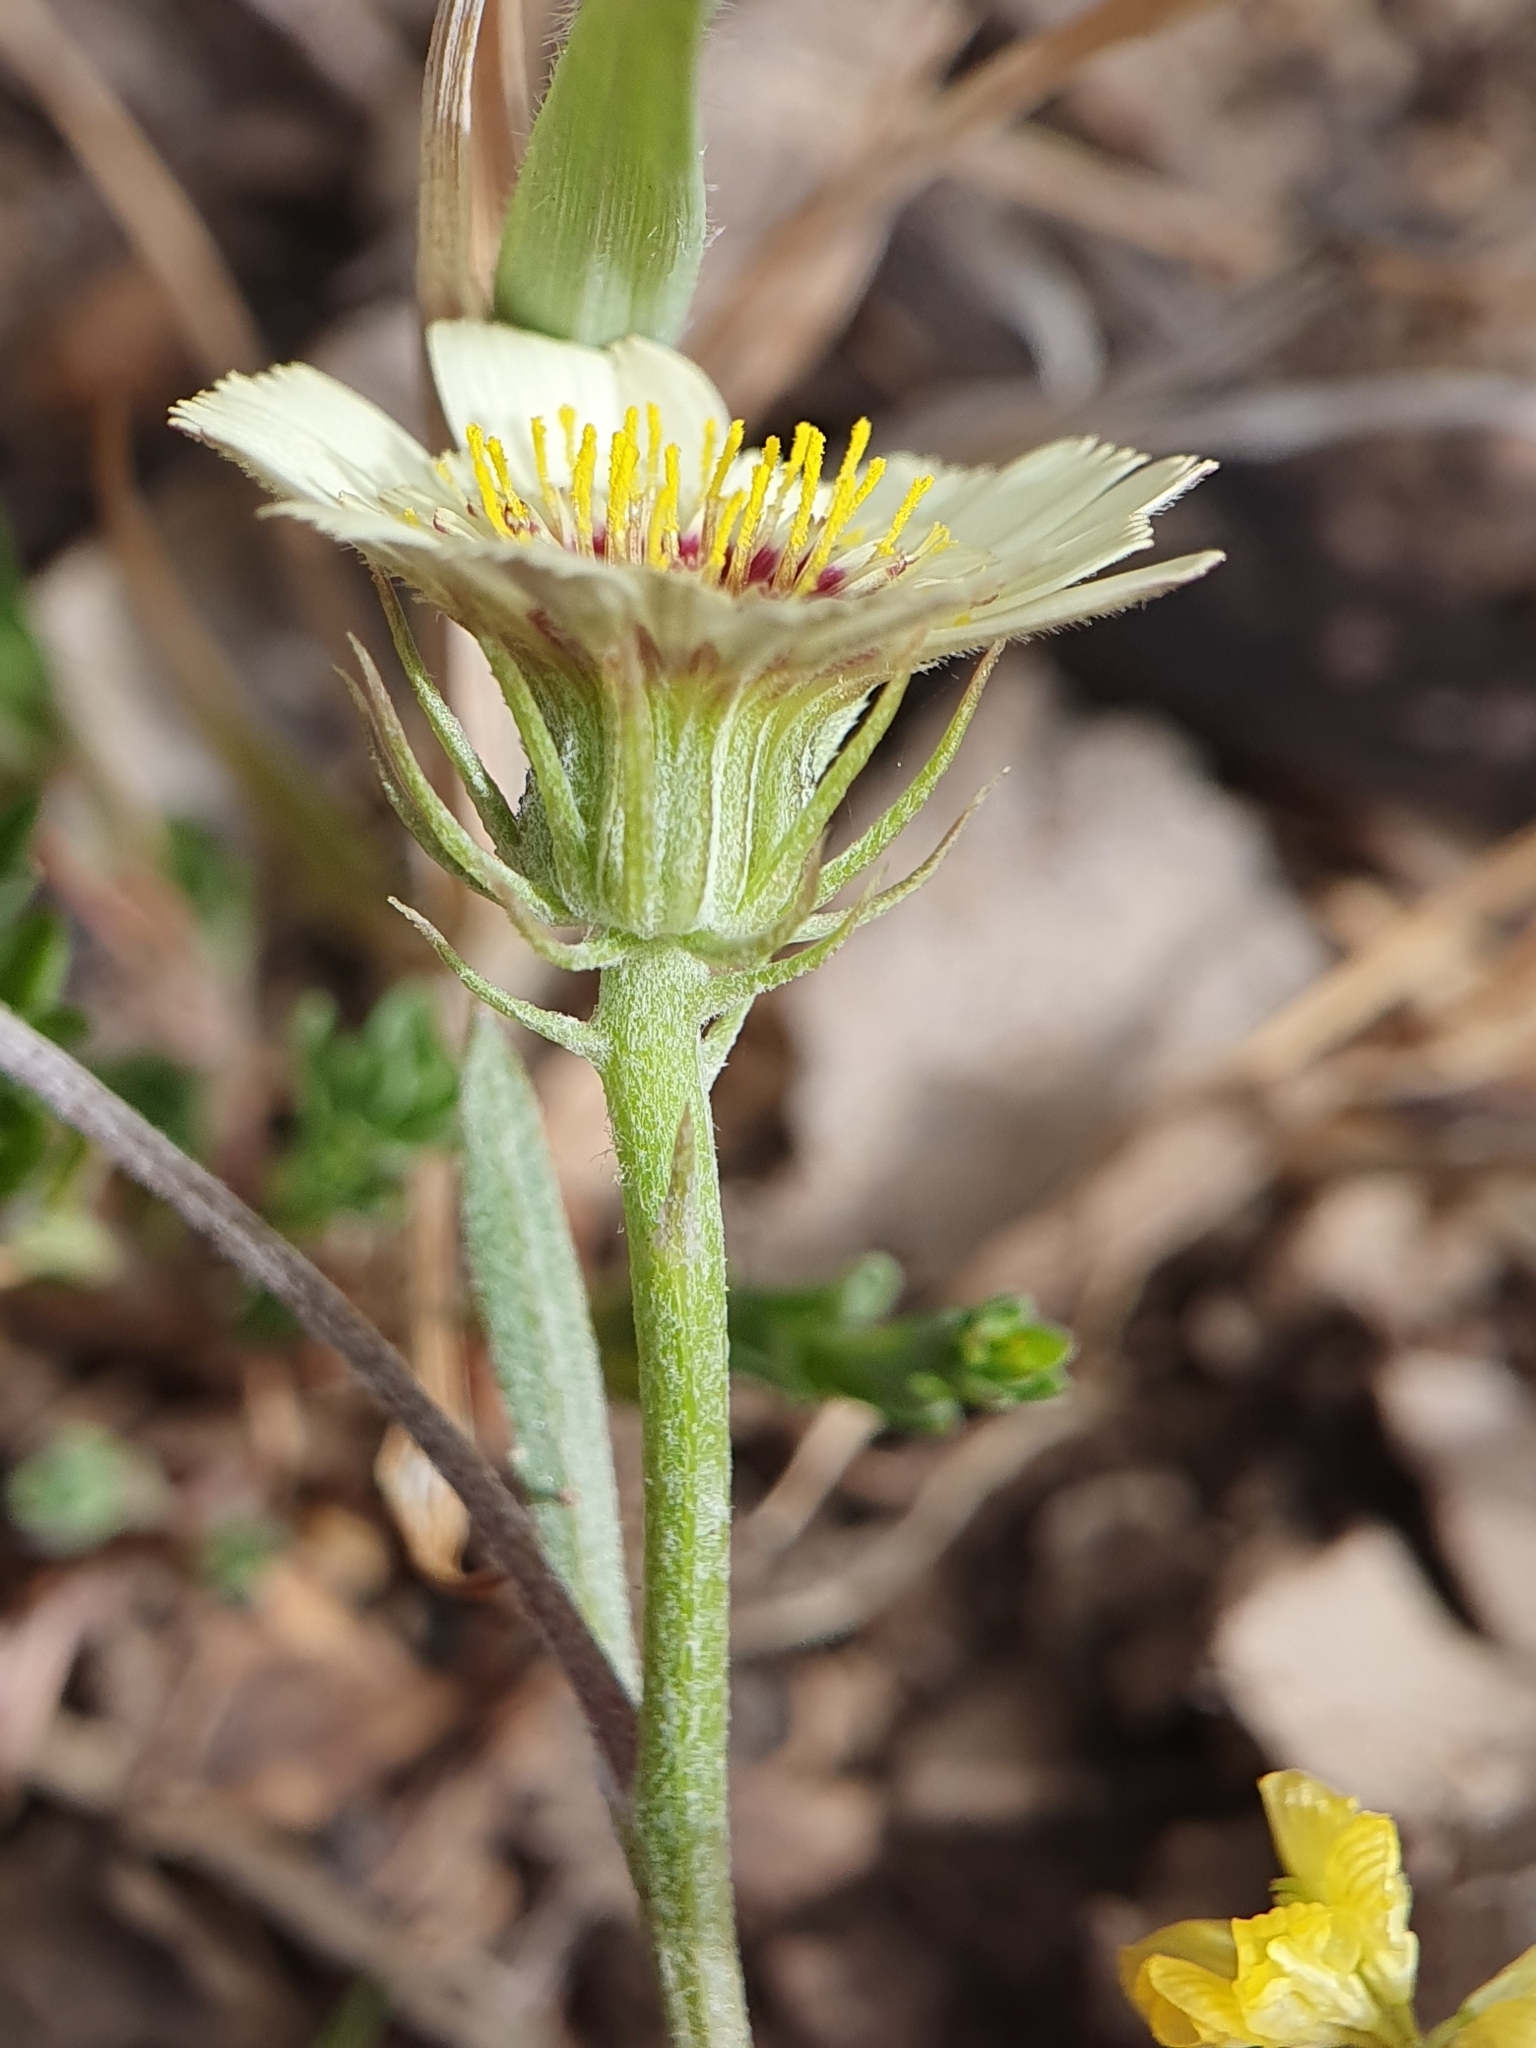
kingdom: Plantae
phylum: Tracheophyta
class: Magnoliopsida
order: Asterales
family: Asteraceae
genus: Tolpis
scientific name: Tolpis barbata
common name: Yellow hawkweed
